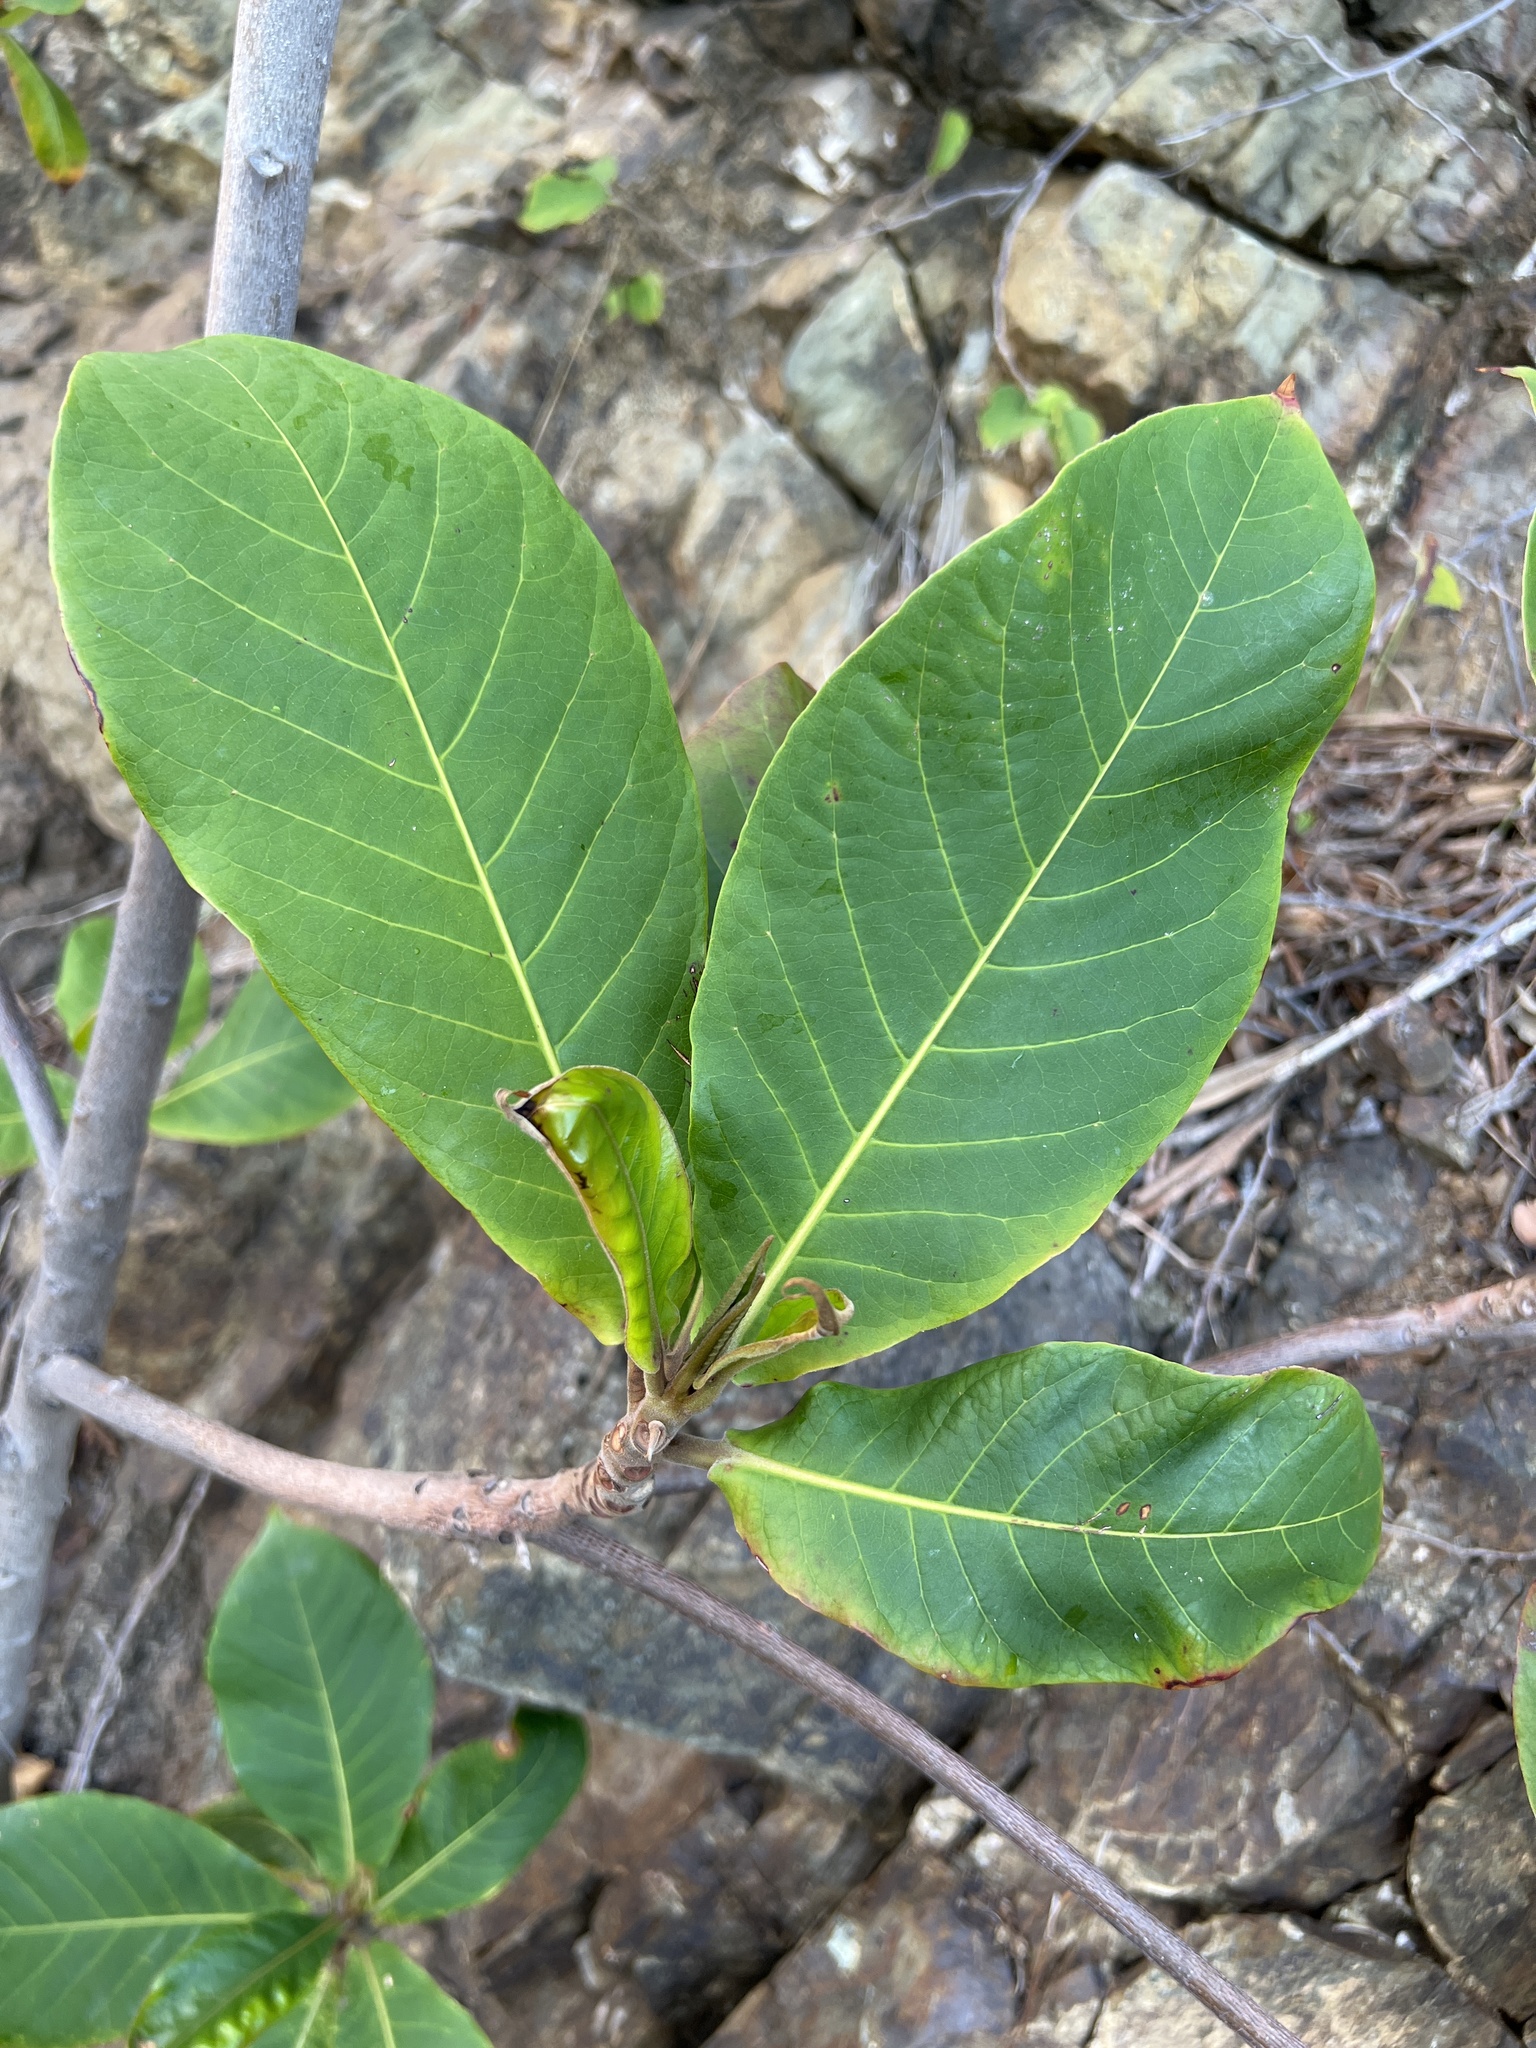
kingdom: Plantae
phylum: Tracheophyta
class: Magnoliopsida
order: Myrtales
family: Combretaceae
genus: Terminalia
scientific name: Terminalia catappa
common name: Tropical almond
